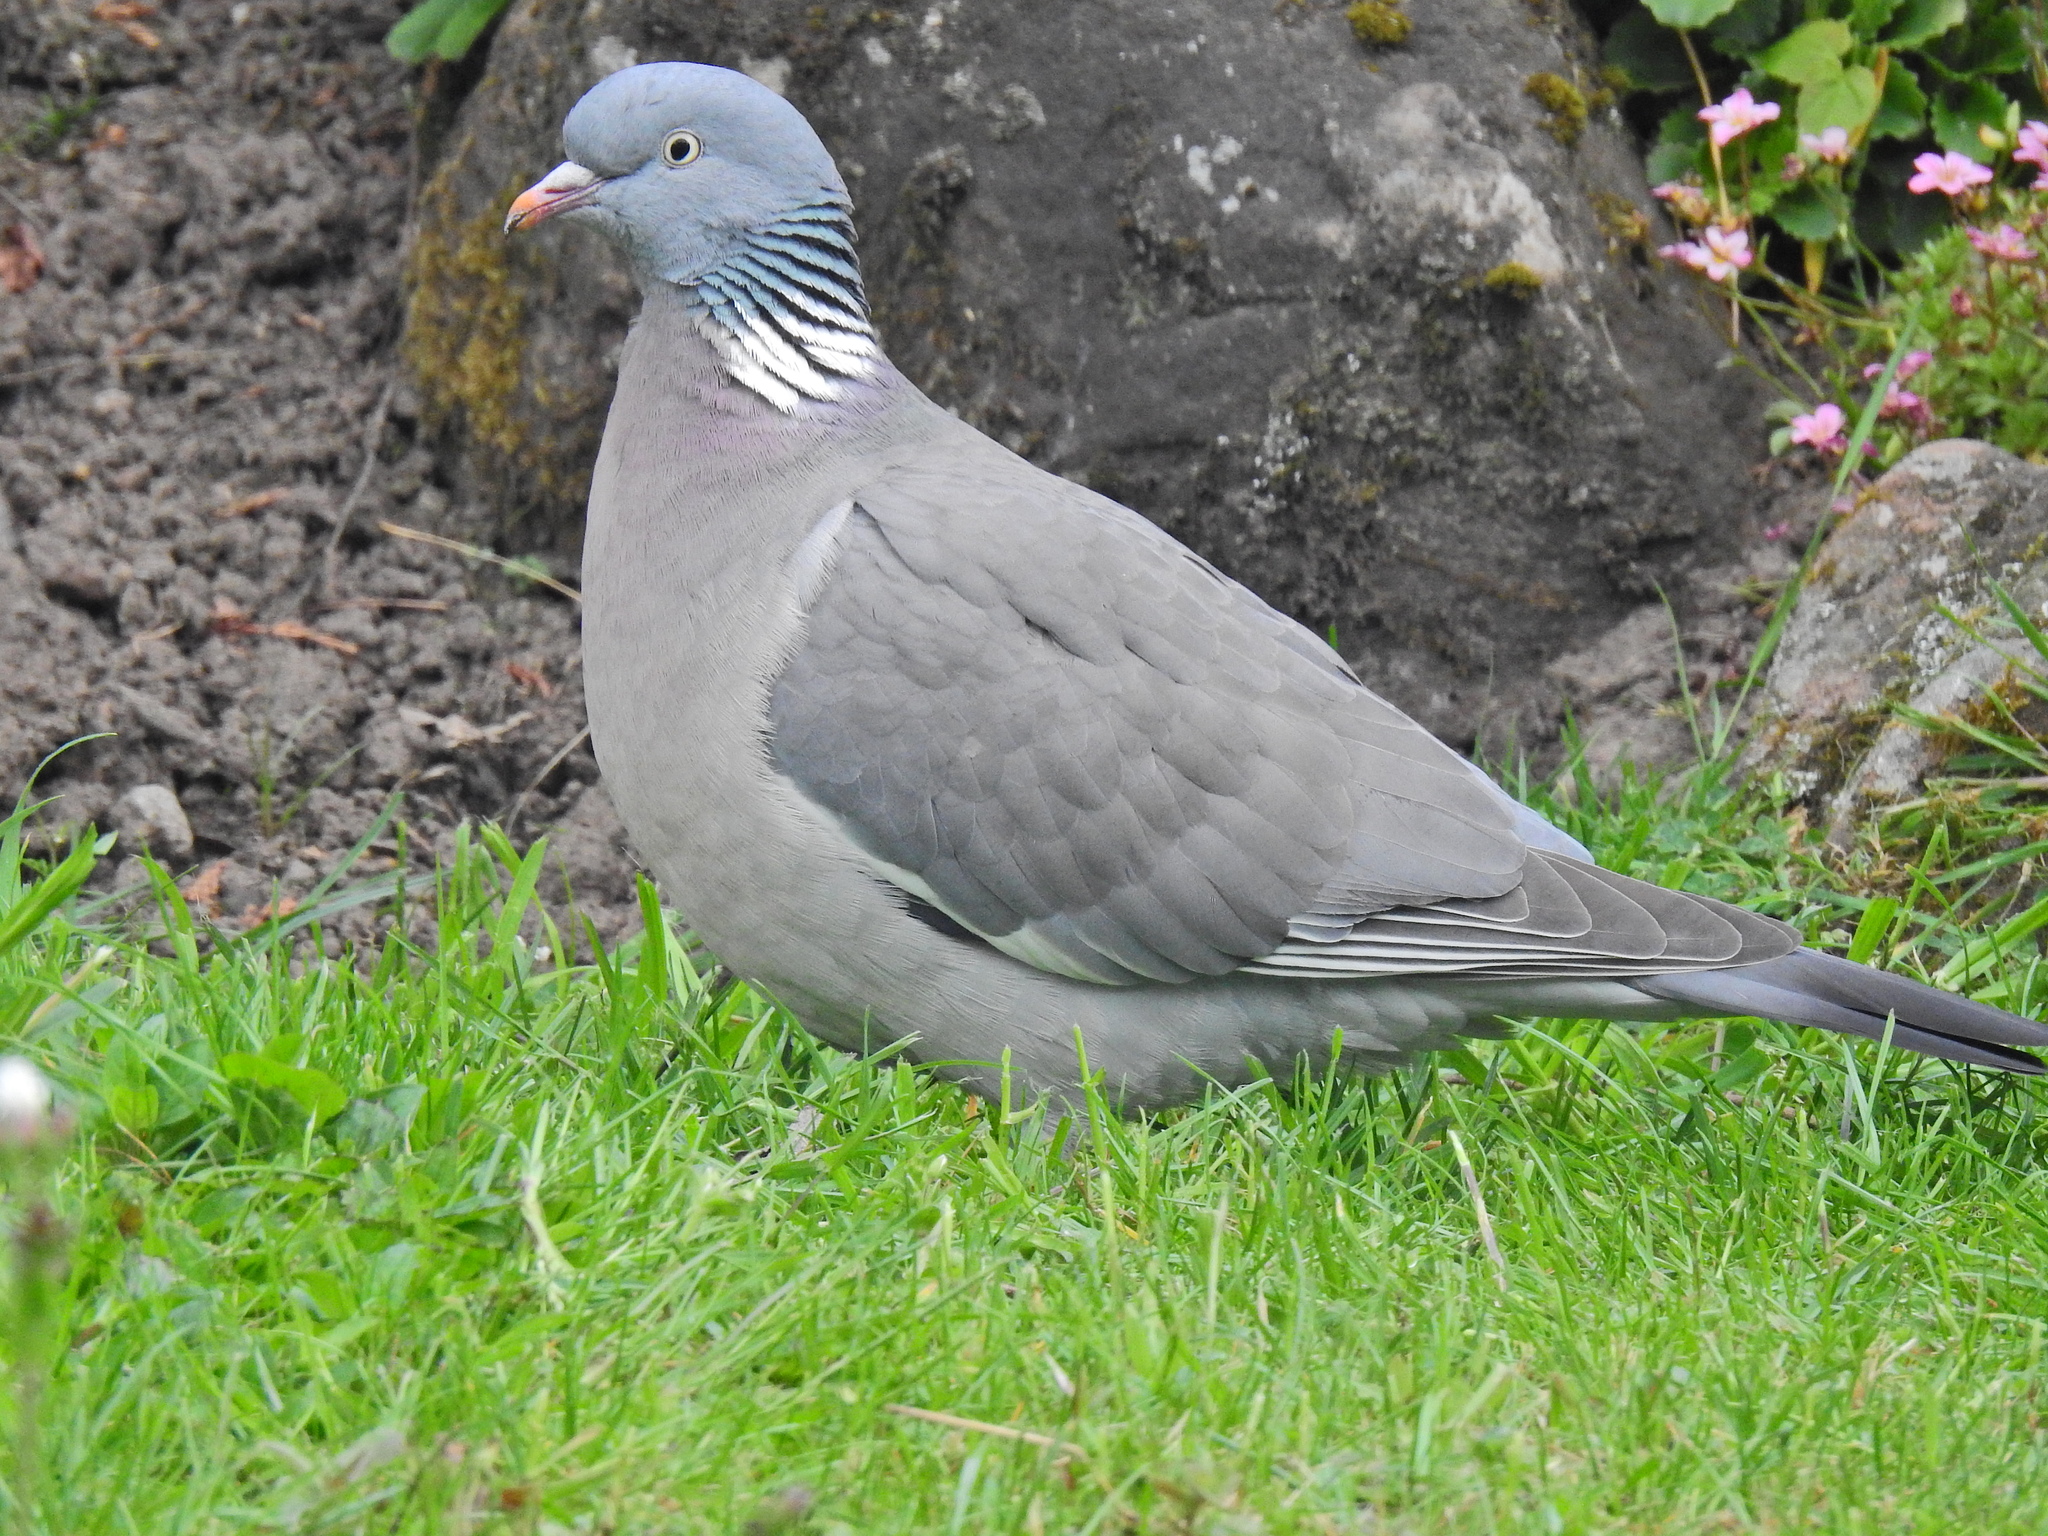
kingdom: Animalia
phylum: Chordata
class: Aves
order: Columbiformes
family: Columbidae
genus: Columba
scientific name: Columba palumbus
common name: Common wood pigeon
